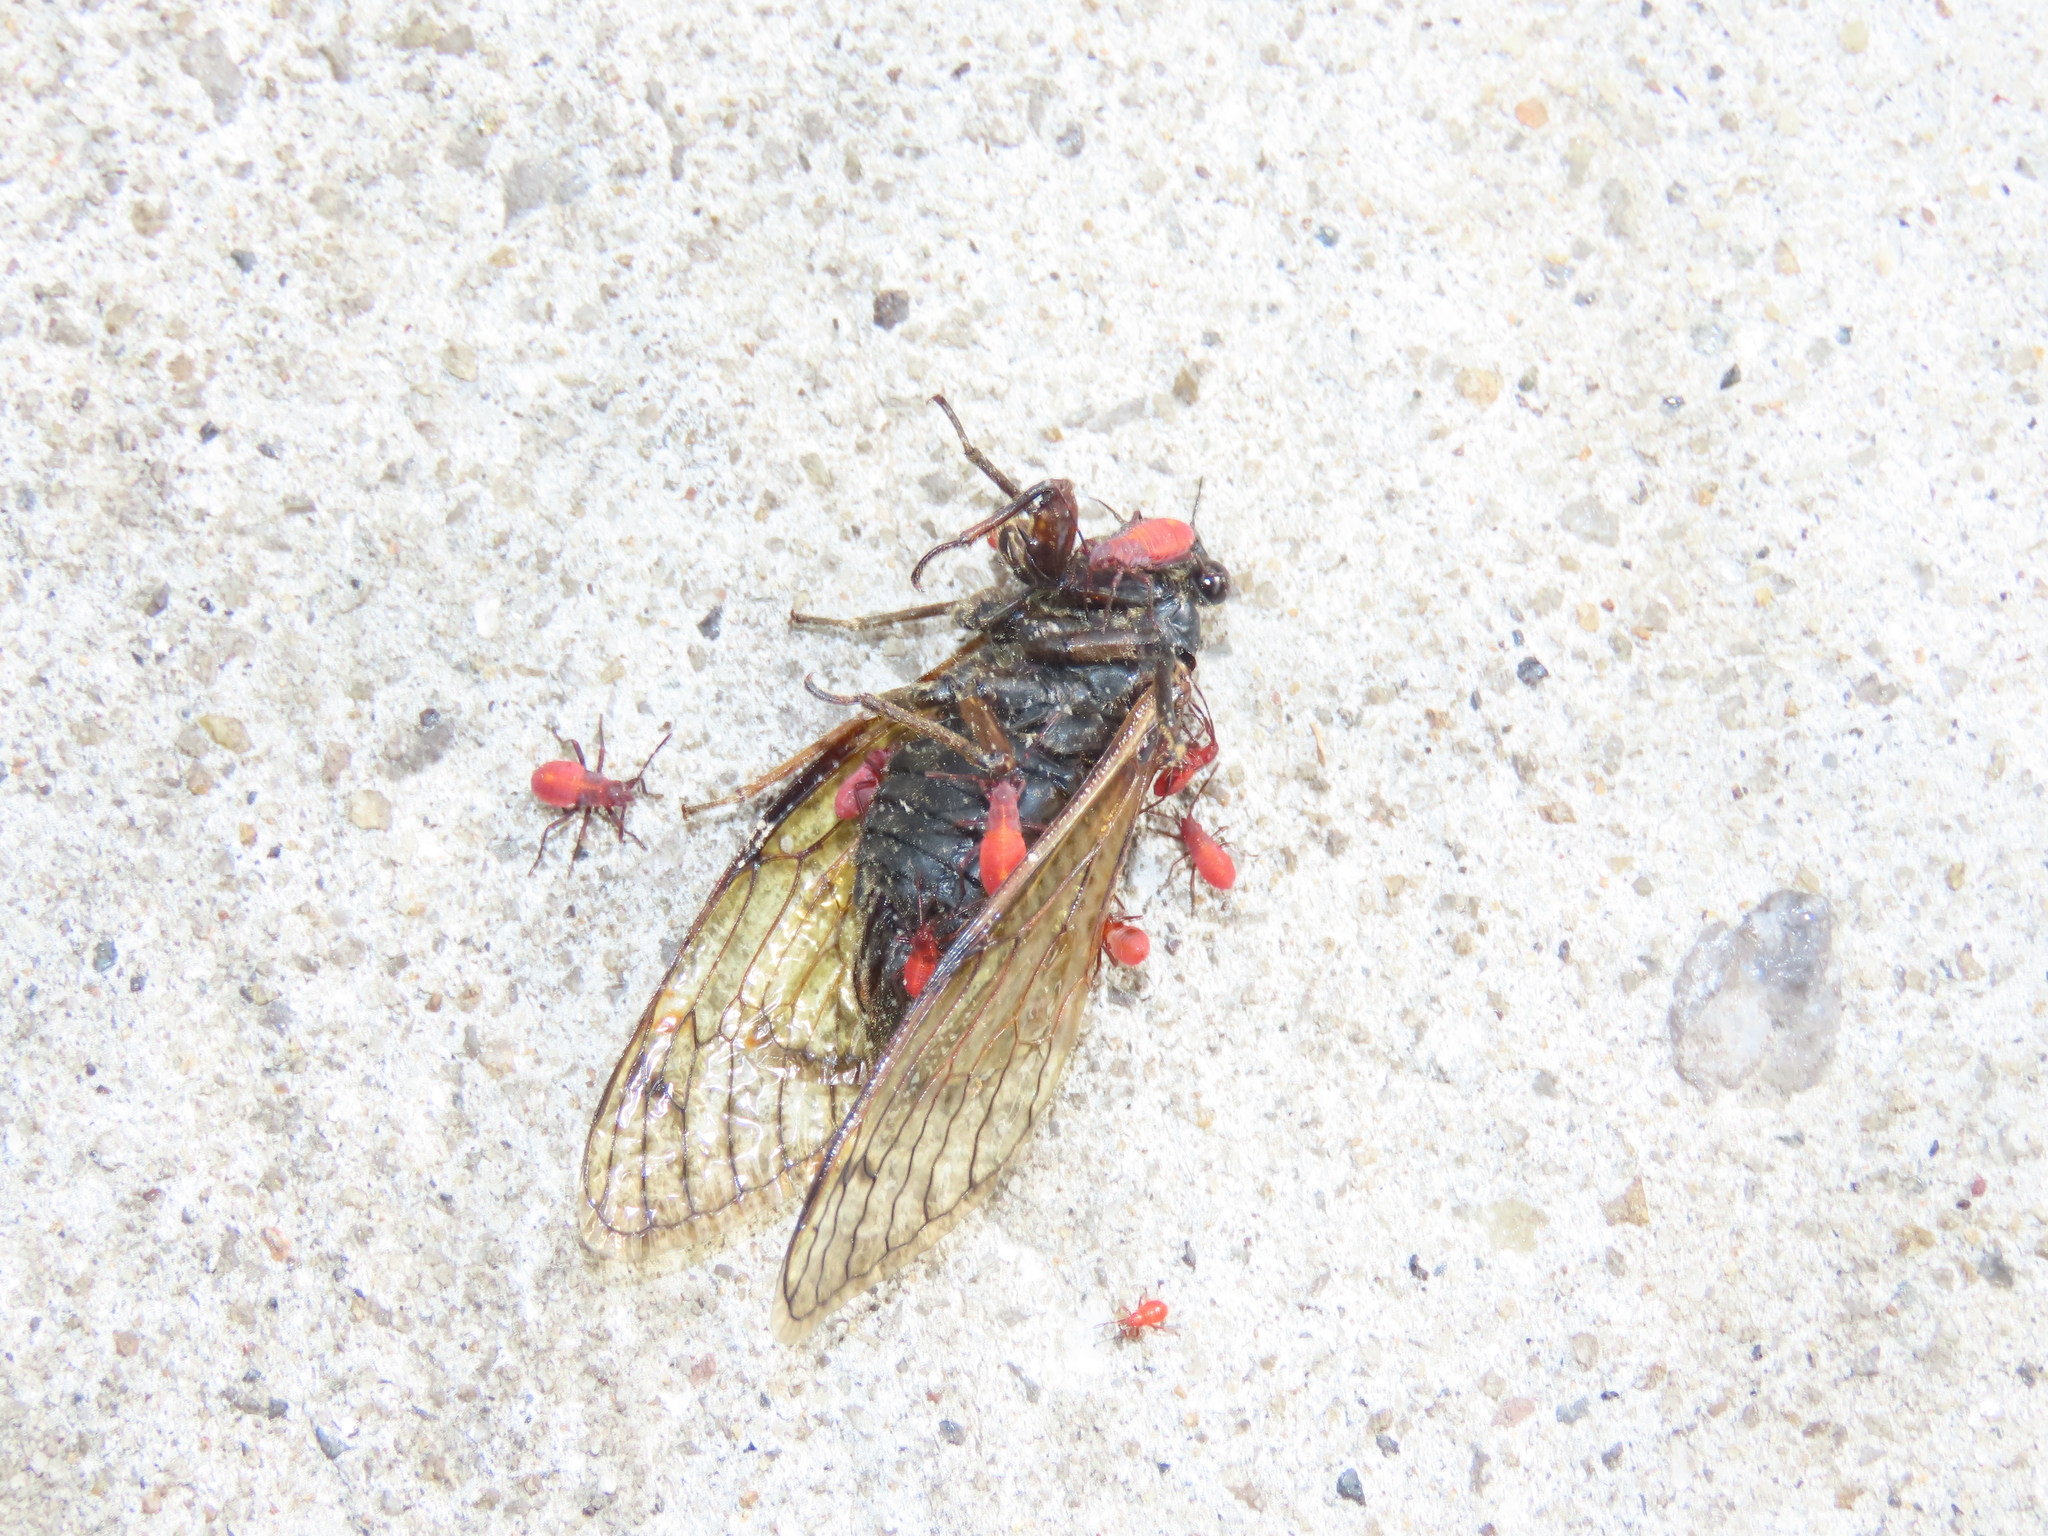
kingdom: Animalia
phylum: Arthropoda
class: Insecta
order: Hemiptera
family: Cicadidae
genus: Magicicada
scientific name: Magicicada cassini
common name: Cassin's 17-year cicada
